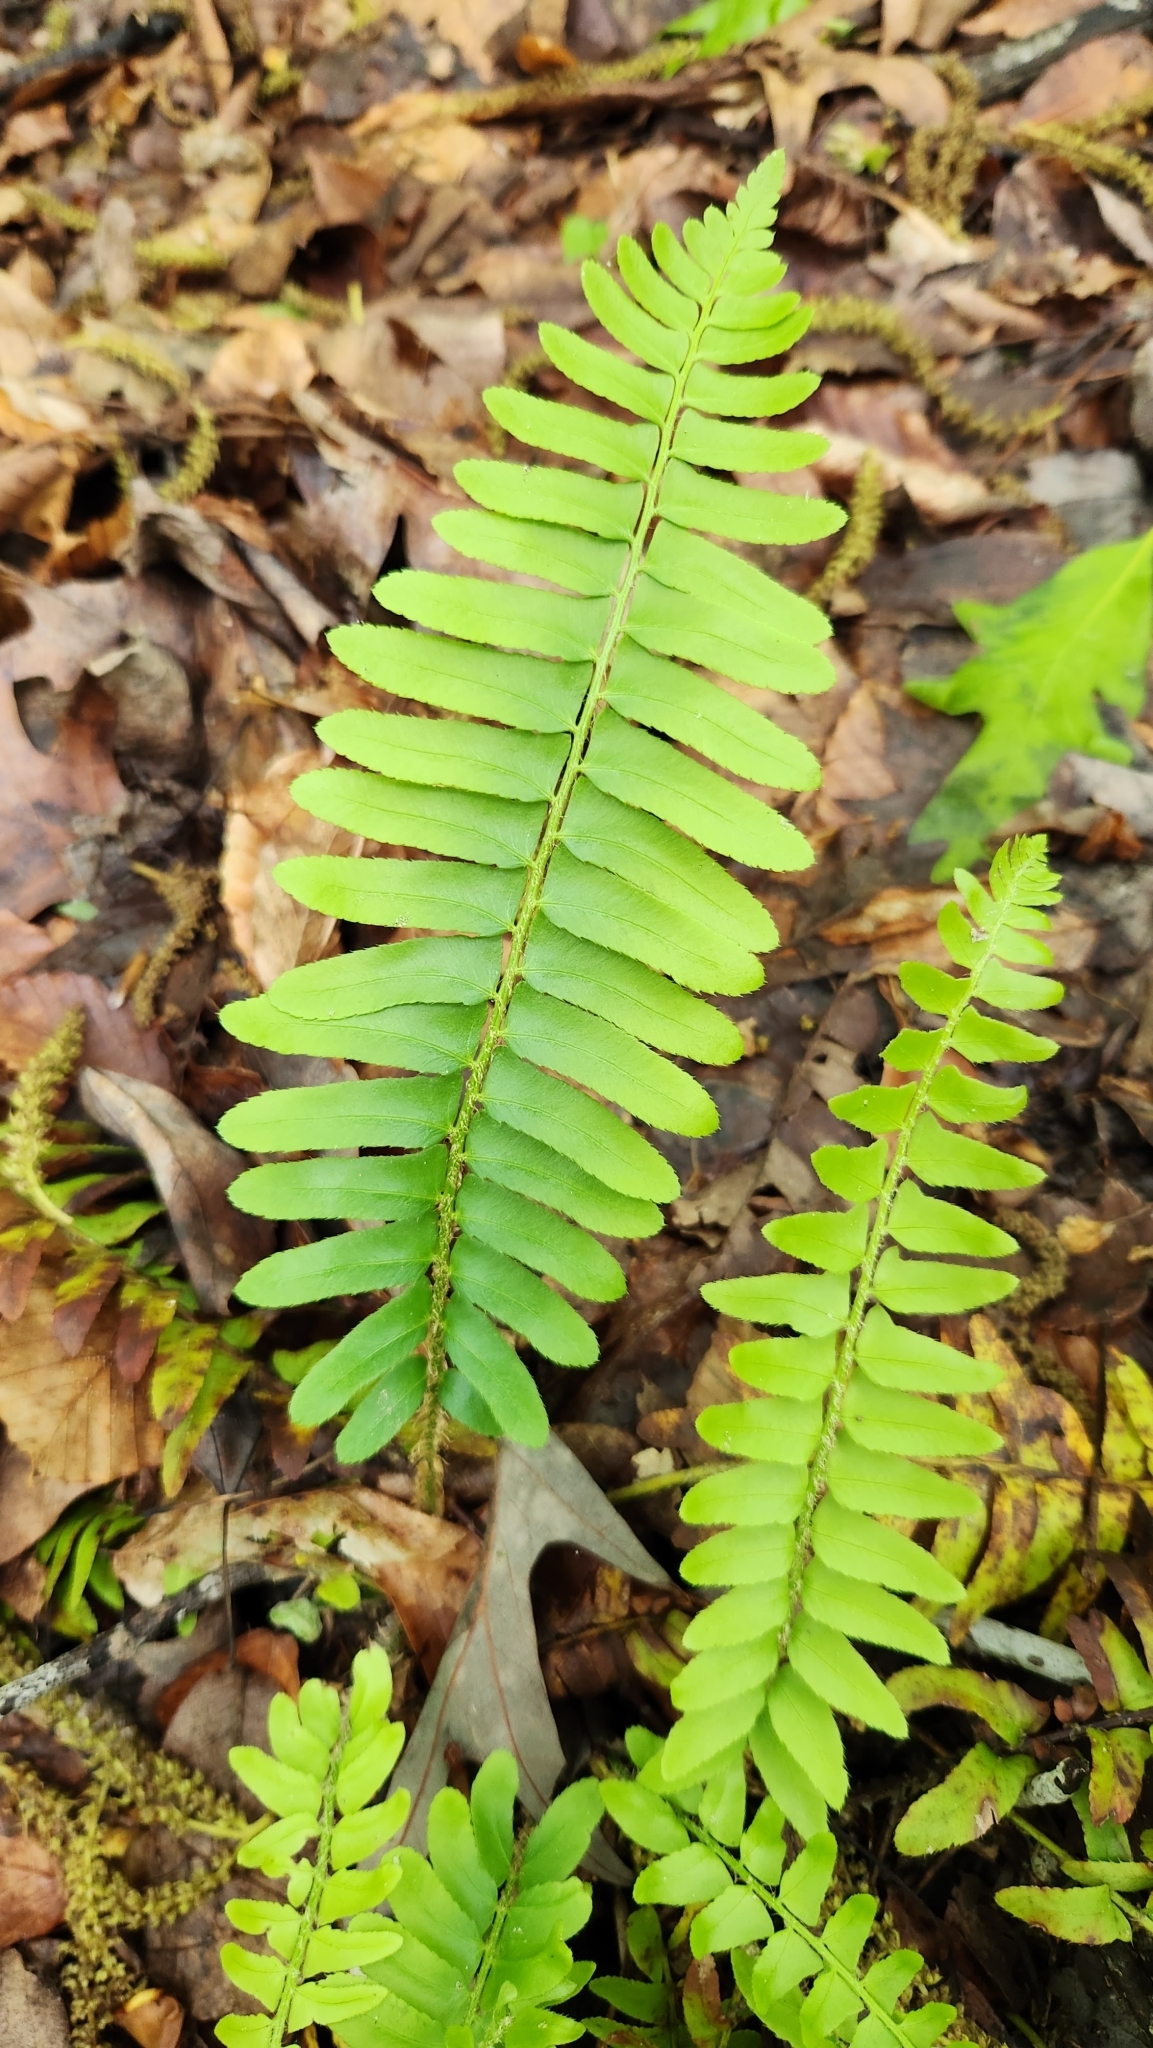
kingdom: Plantae
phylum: Tracheophyta
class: Polypodiopsida
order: Polypodiales
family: Dryopteridaceae
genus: Polystichum
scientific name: Polystichum acrostichoides
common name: Christmas fern
